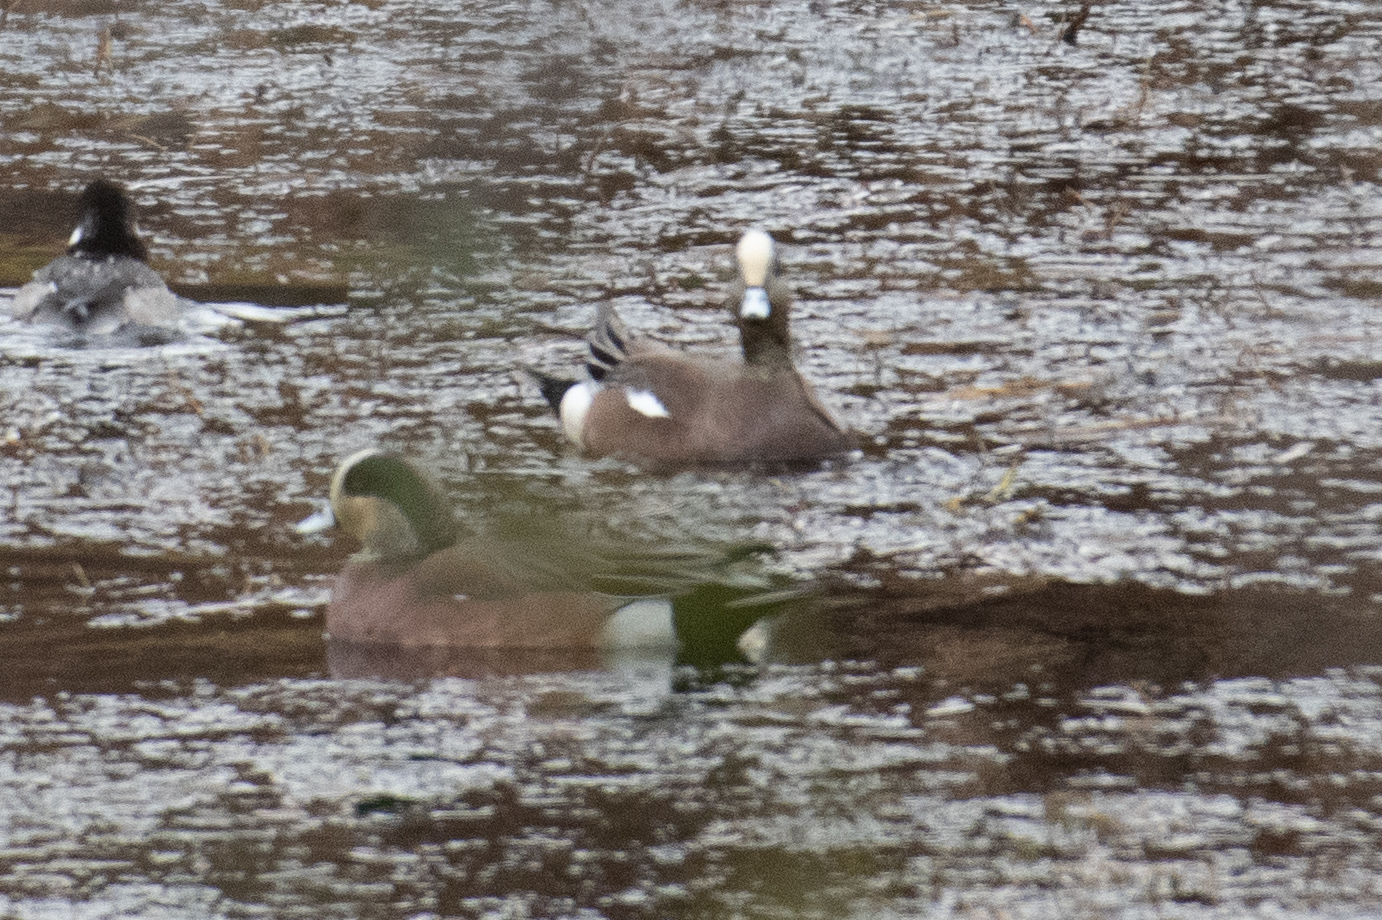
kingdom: Animalia
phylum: Chordata
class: Aves
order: Anseriformes
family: Anatidae
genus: Mareca
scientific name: Mareca americana
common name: American wigeon
